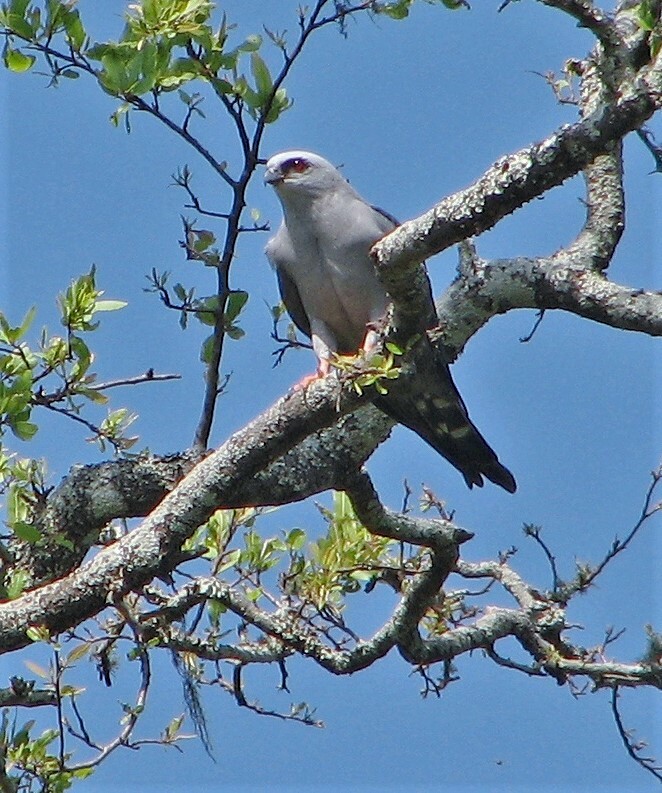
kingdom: Animalia
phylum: Chordata
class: Aves
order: Accipitriformes
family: Accipitridae
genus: Ictinia
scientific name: Ictinia plumbea
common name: Plumbeous kite
